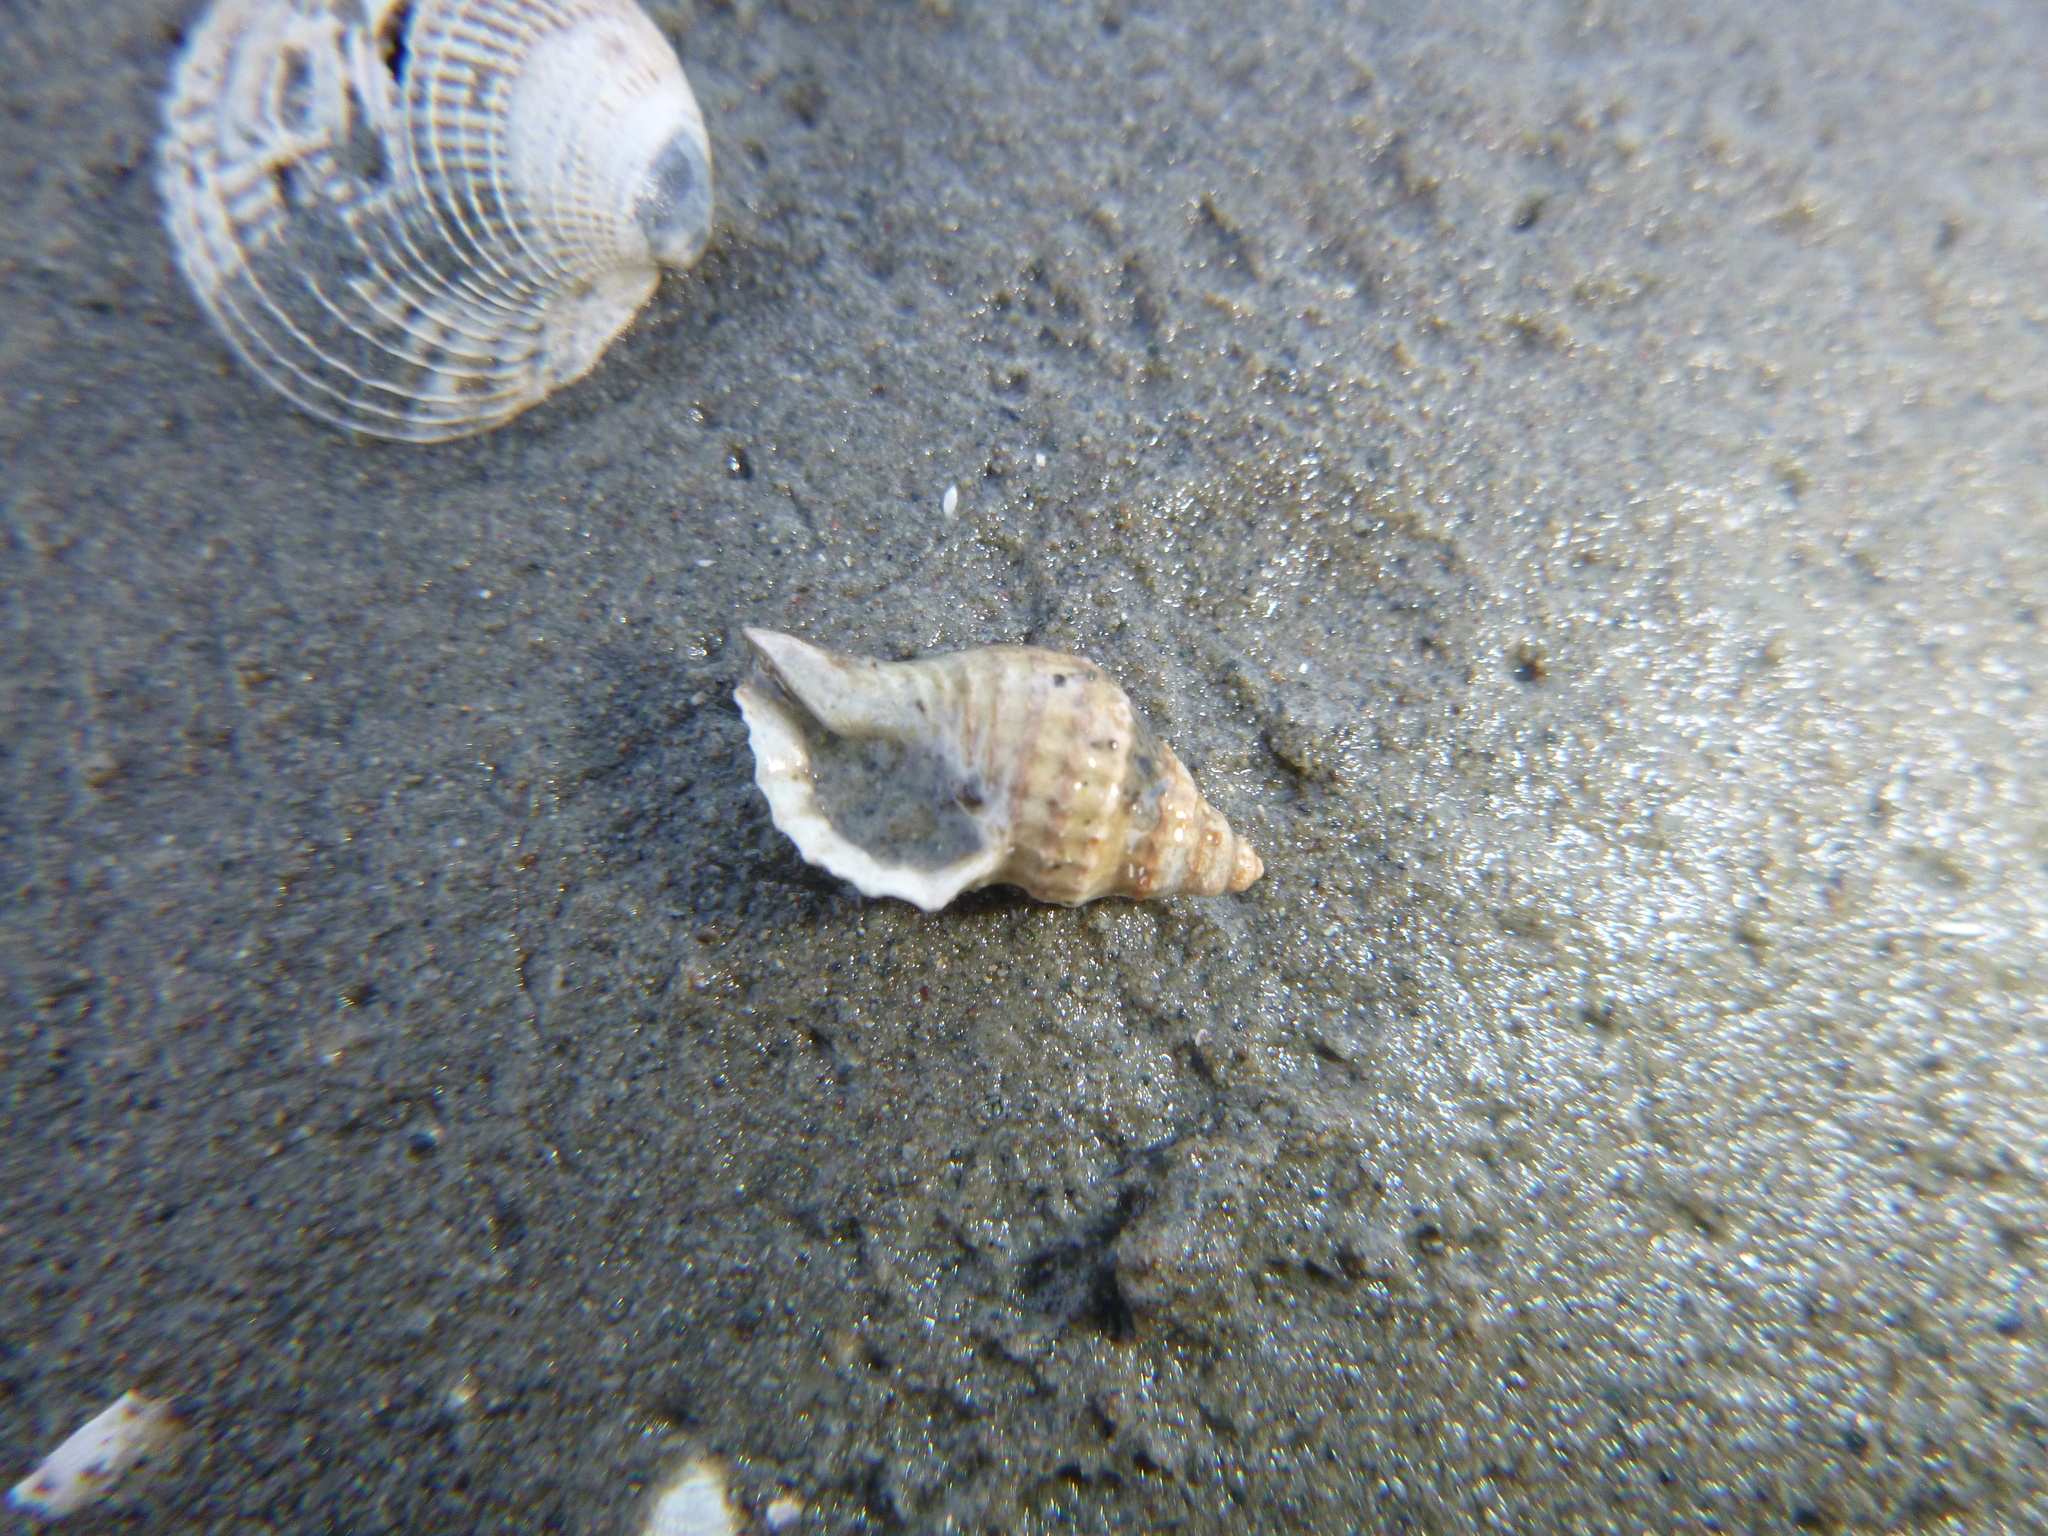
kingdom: Animalia
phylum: Mollusca
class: Gastropoda
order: Neogastropoda
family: Muricidae
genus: Xymene
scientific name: Xymene plebeius
